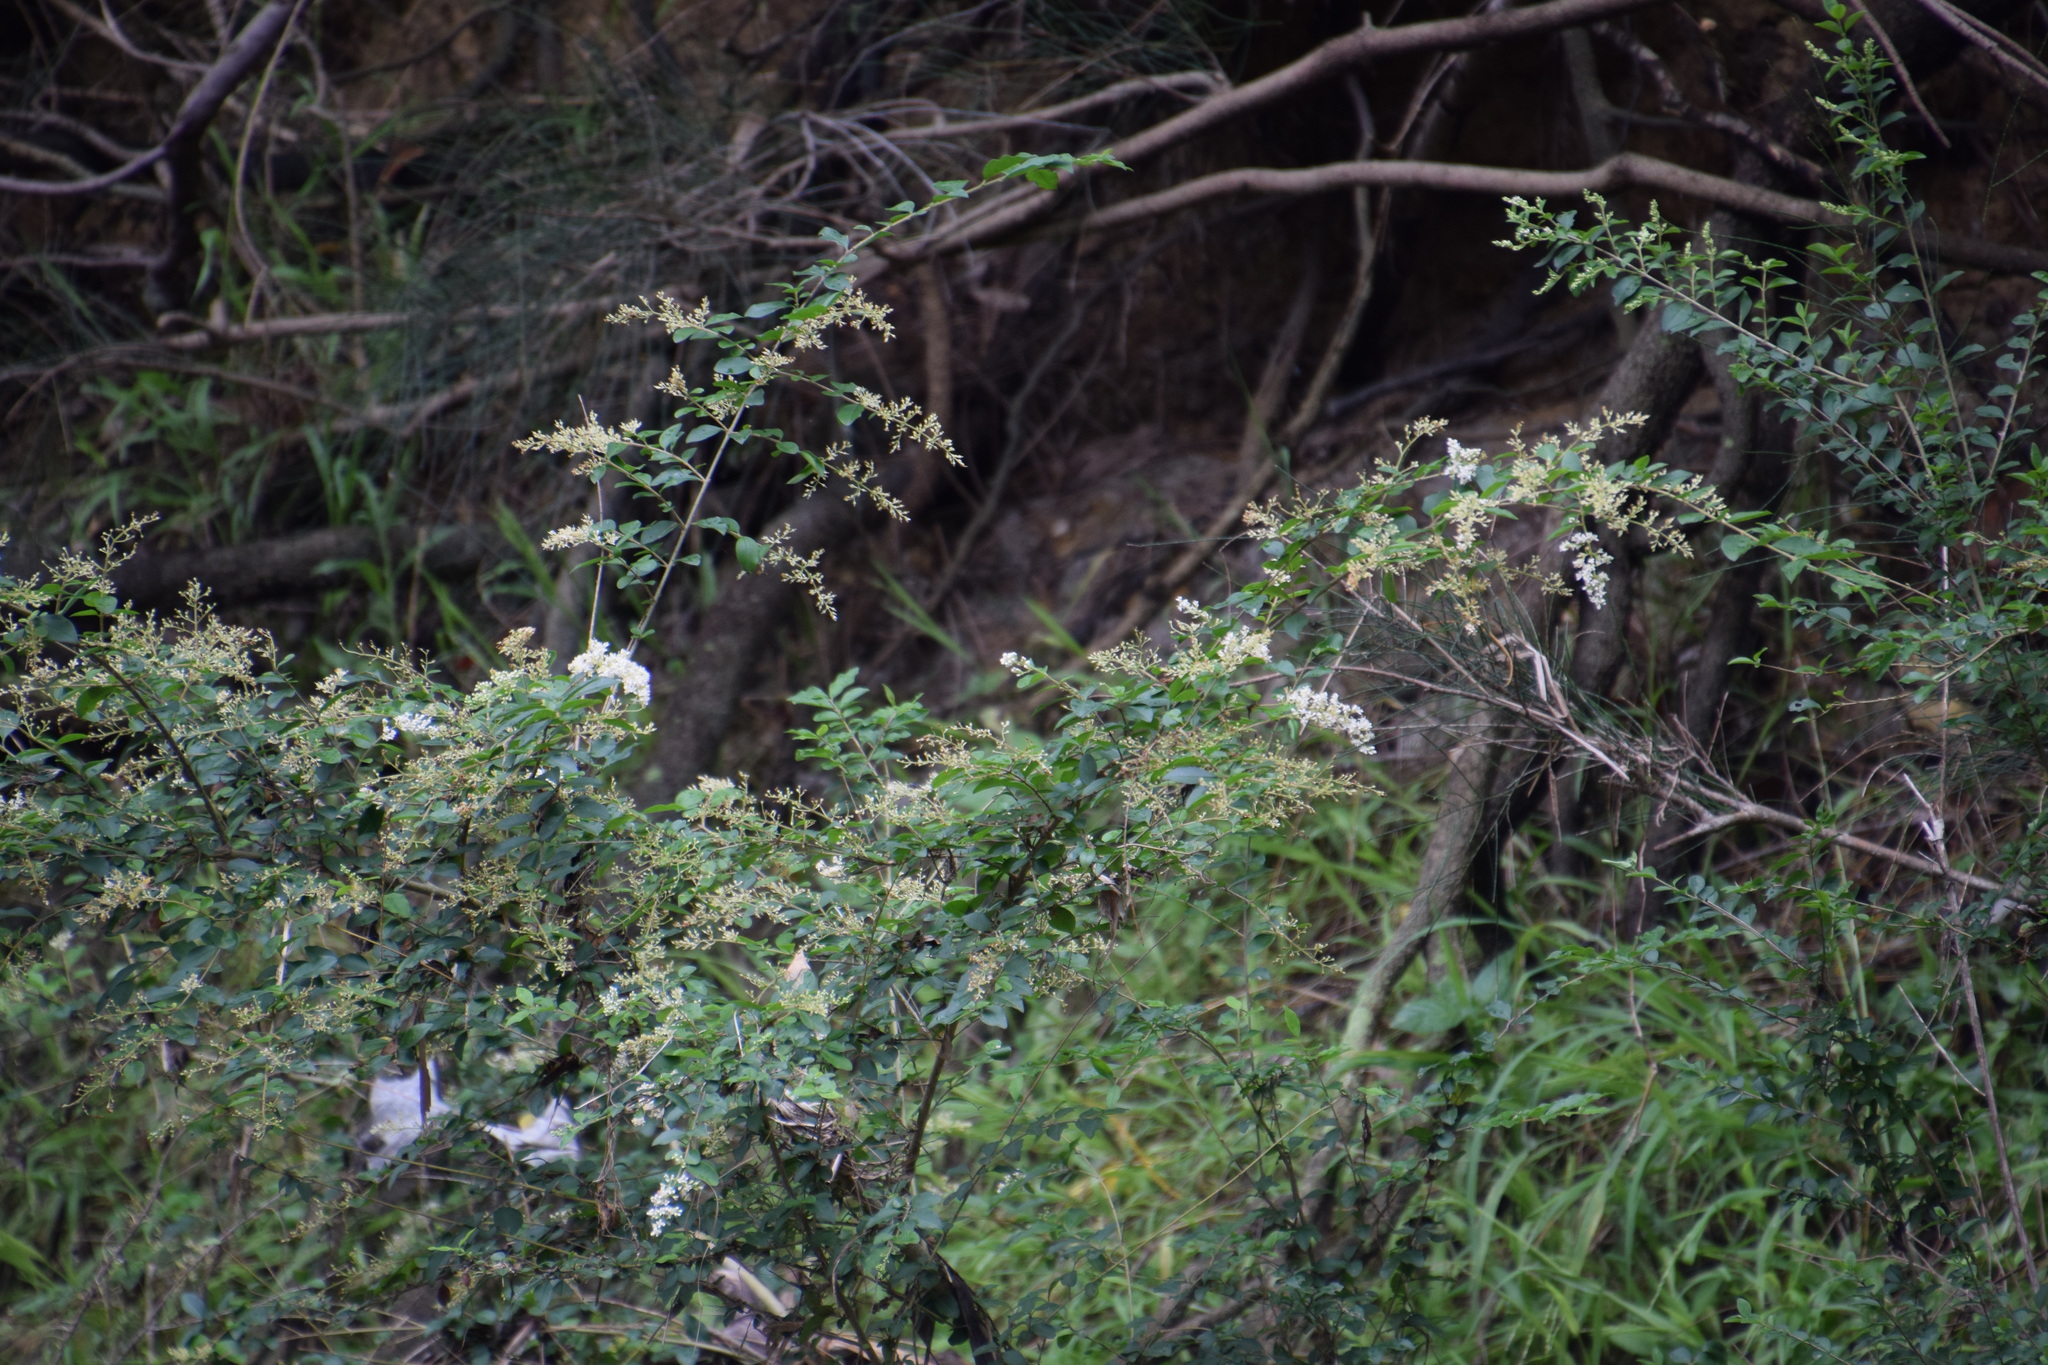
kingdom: Plantae
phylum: Tracheophyta
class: Magnoliopsida
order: Lamiales
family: Oleaceae
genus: Ligustrum
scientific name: Ligustrum sinense
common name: Chinese privet
